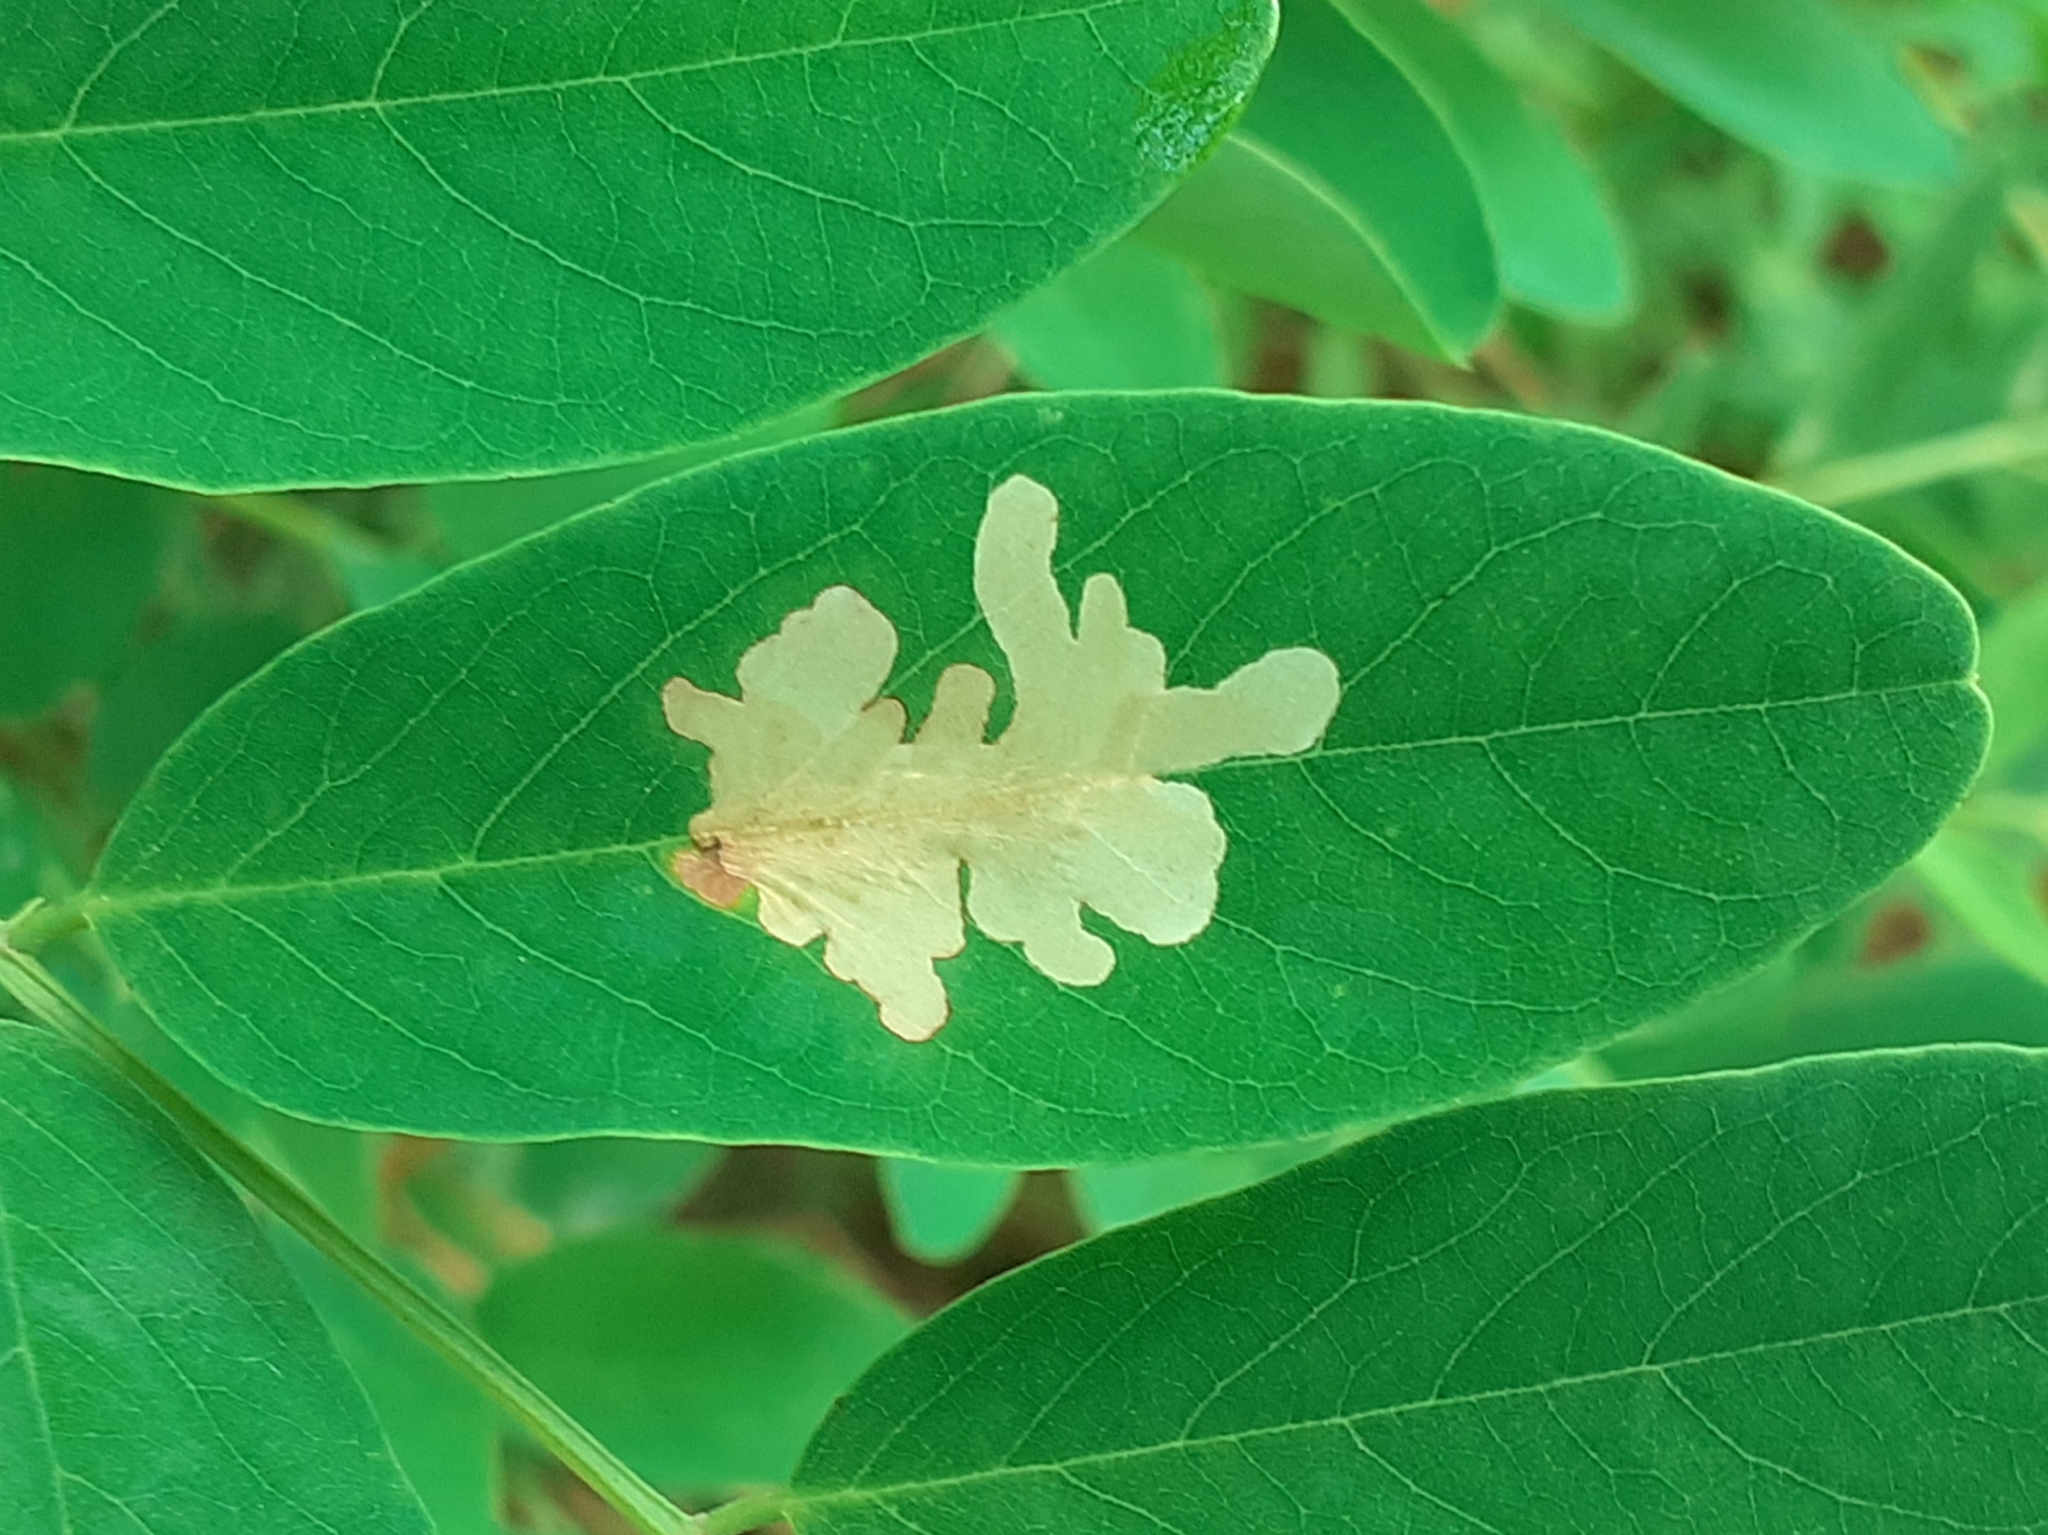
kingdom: Animalia
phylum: Arthropoda
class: Insecta
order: Lepidoptera
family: Gracillariidae
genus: Parectopa
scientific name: Parectopa robiniella
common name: Locust digitate leafminer
